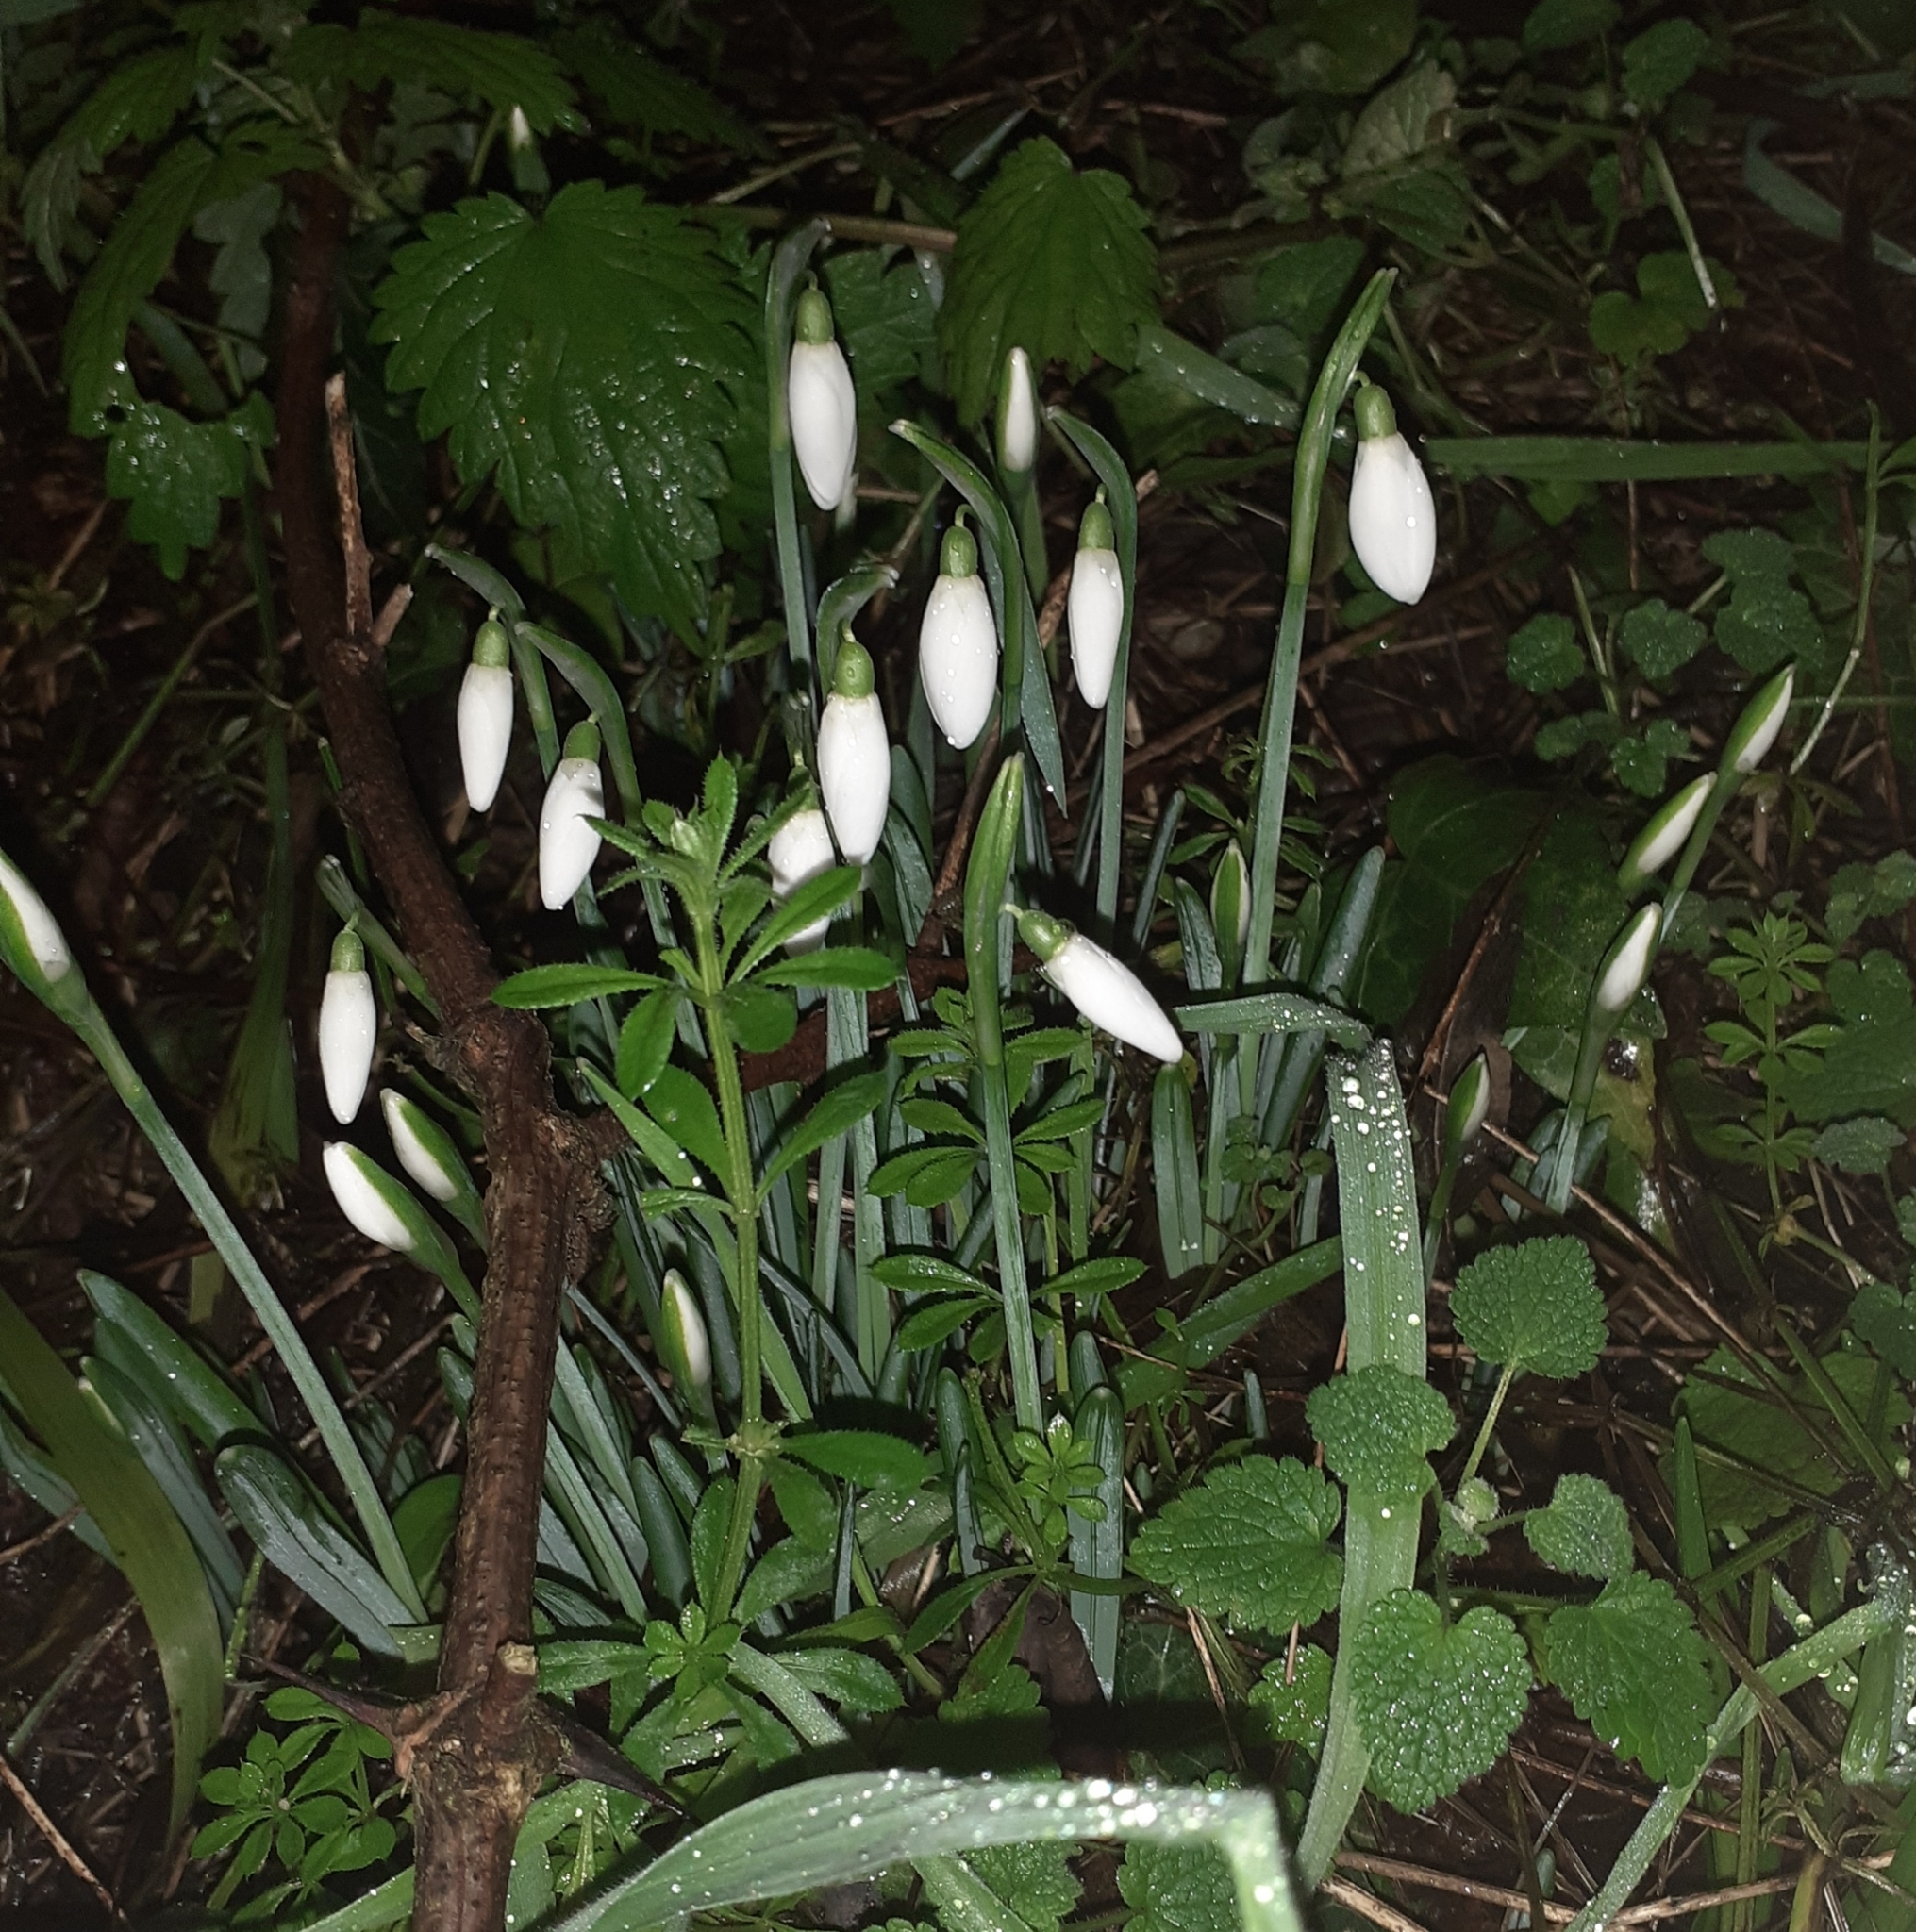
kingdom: Plantae
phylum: Tracheophyta
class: Liliopsida
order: Asparagales
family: Amaryllidaceae
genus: Galanthus
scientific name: Galanthus nivalis
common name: Snowdrop
